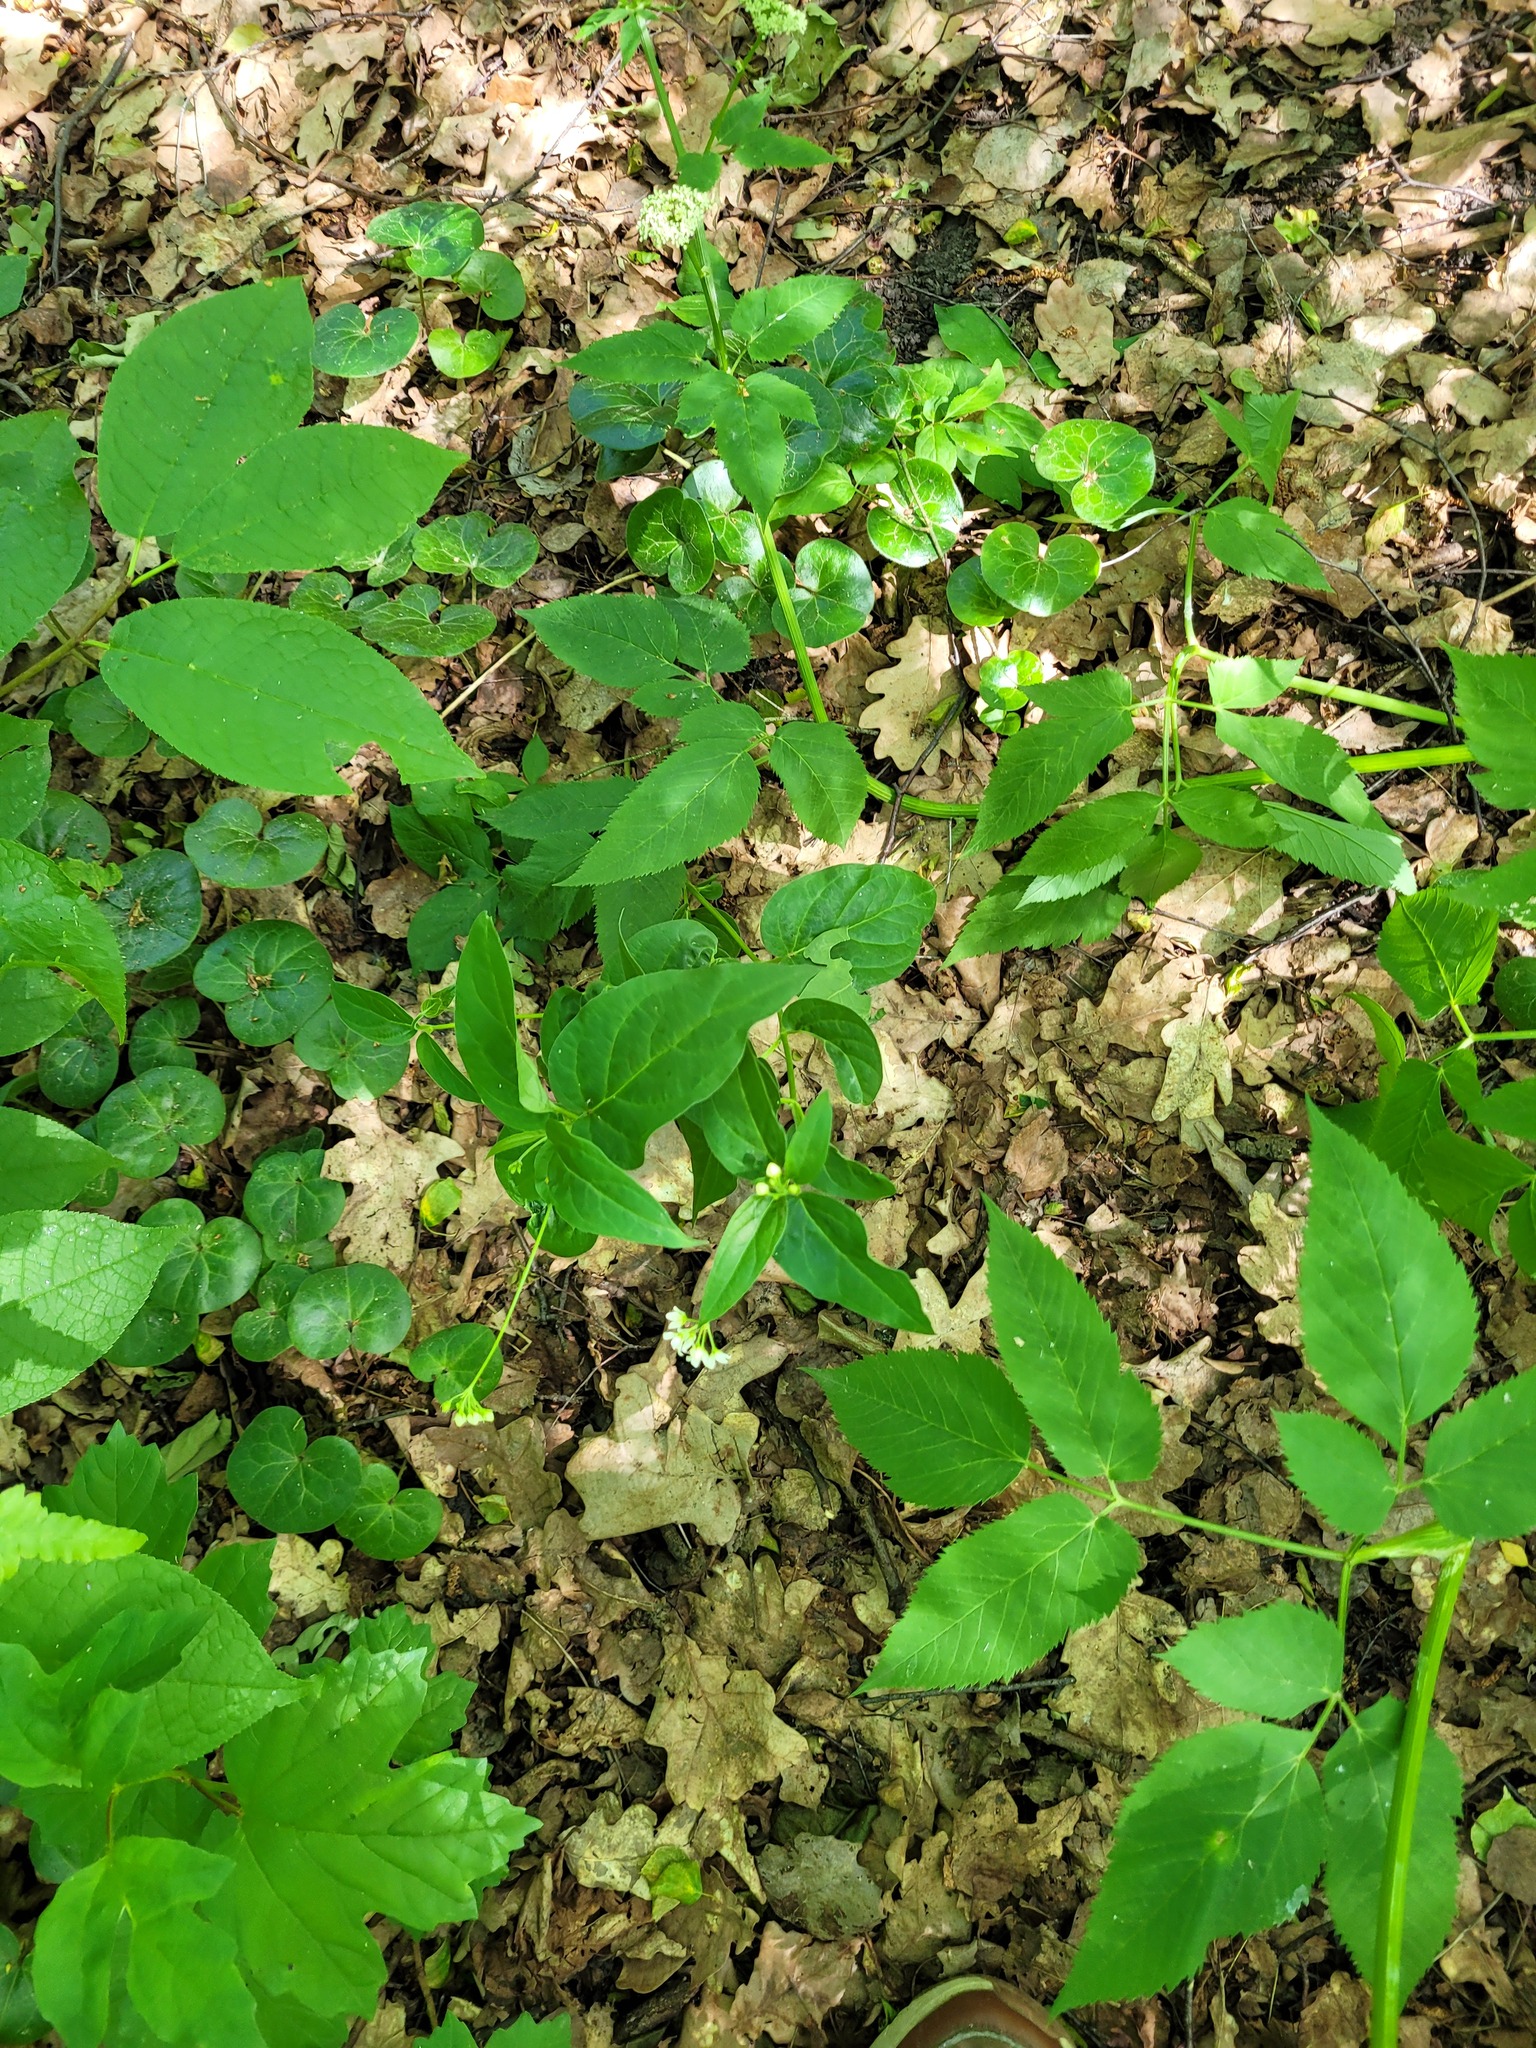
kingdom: Plantae
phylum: Tracheophyta
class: Magnoliopsida
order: Gentianales
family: Apocynaceae
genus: Vincetoxicum
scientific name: Vincetoxicum hirundinaria
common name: White swallowwort
